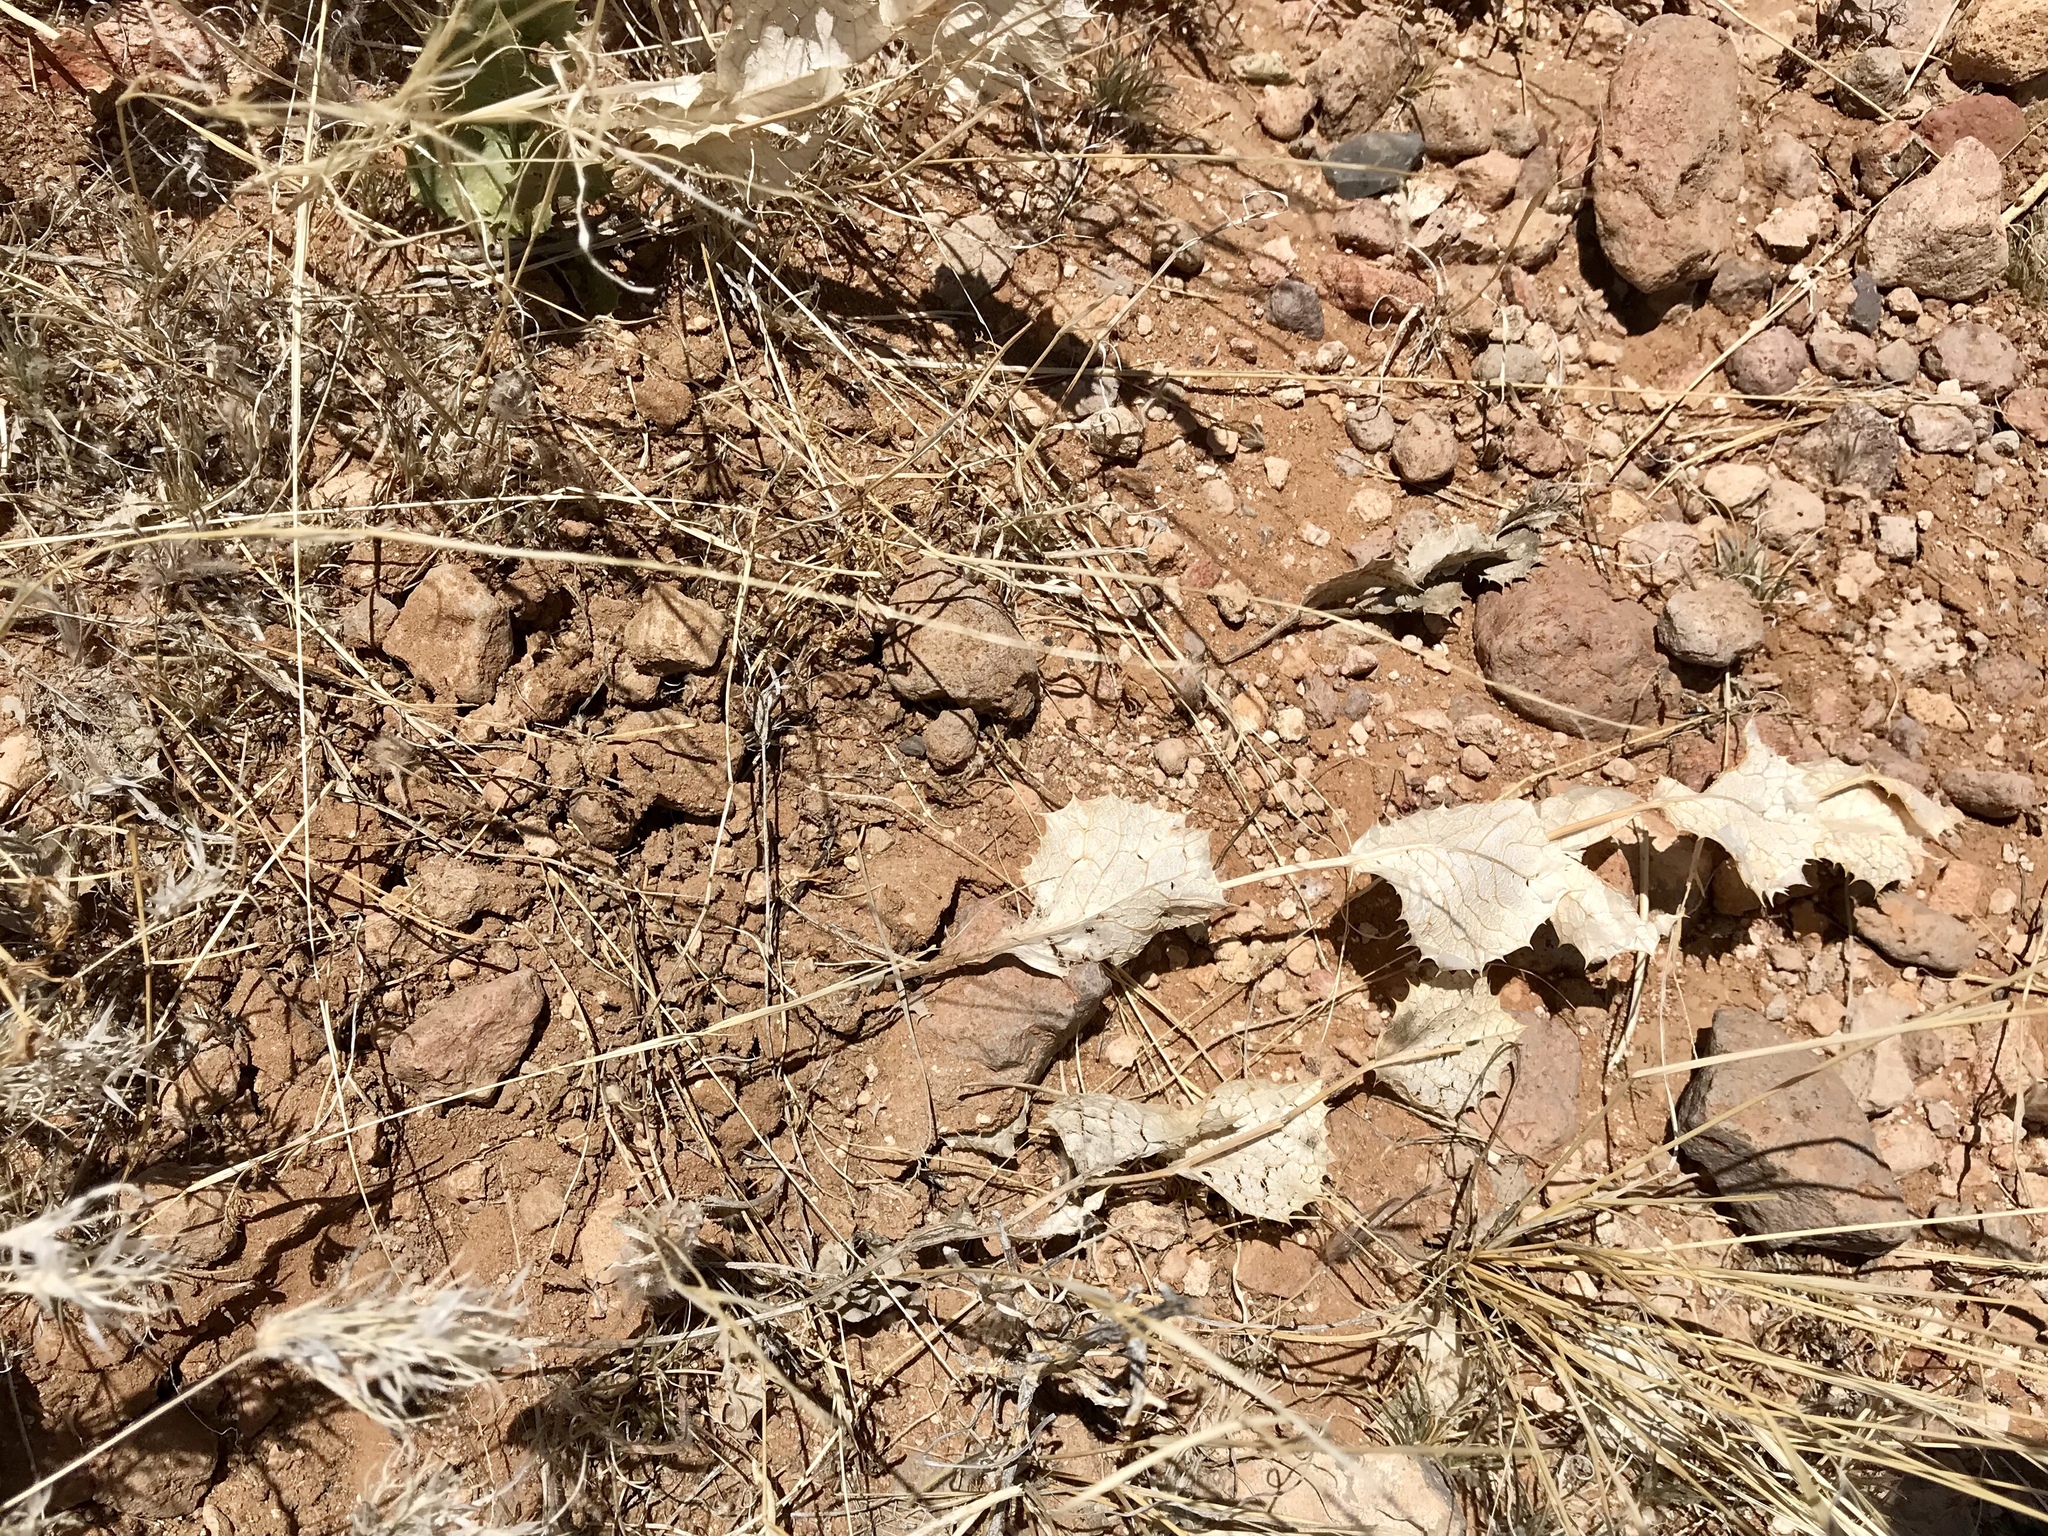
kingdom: Plantae
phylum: Tracheophyta
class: Magnoliopsida
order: Asterales
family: Asteraceae
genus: Acourtia
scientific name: Acourtia nana
